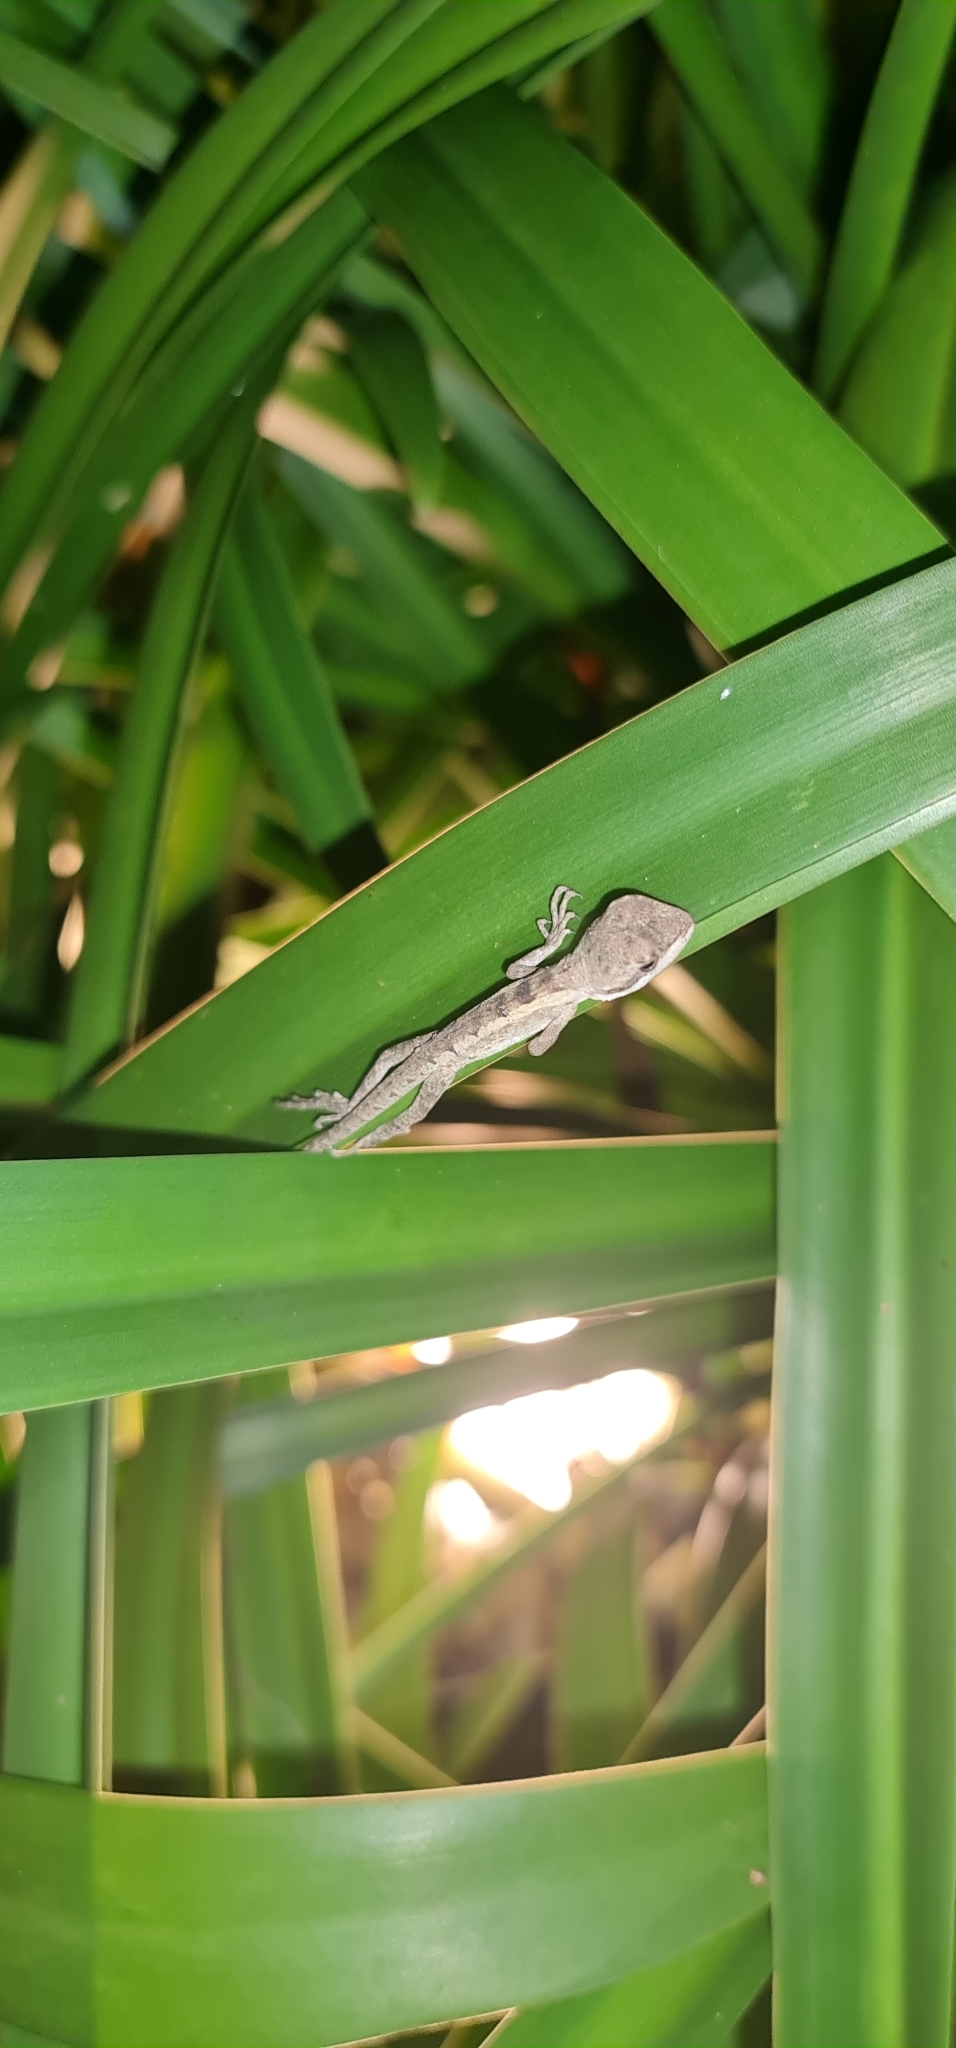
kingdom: Animalia
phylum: Chordata
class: Squamata
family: Agamidae
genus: Tropicagama
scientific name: Tropicagama temporalis
